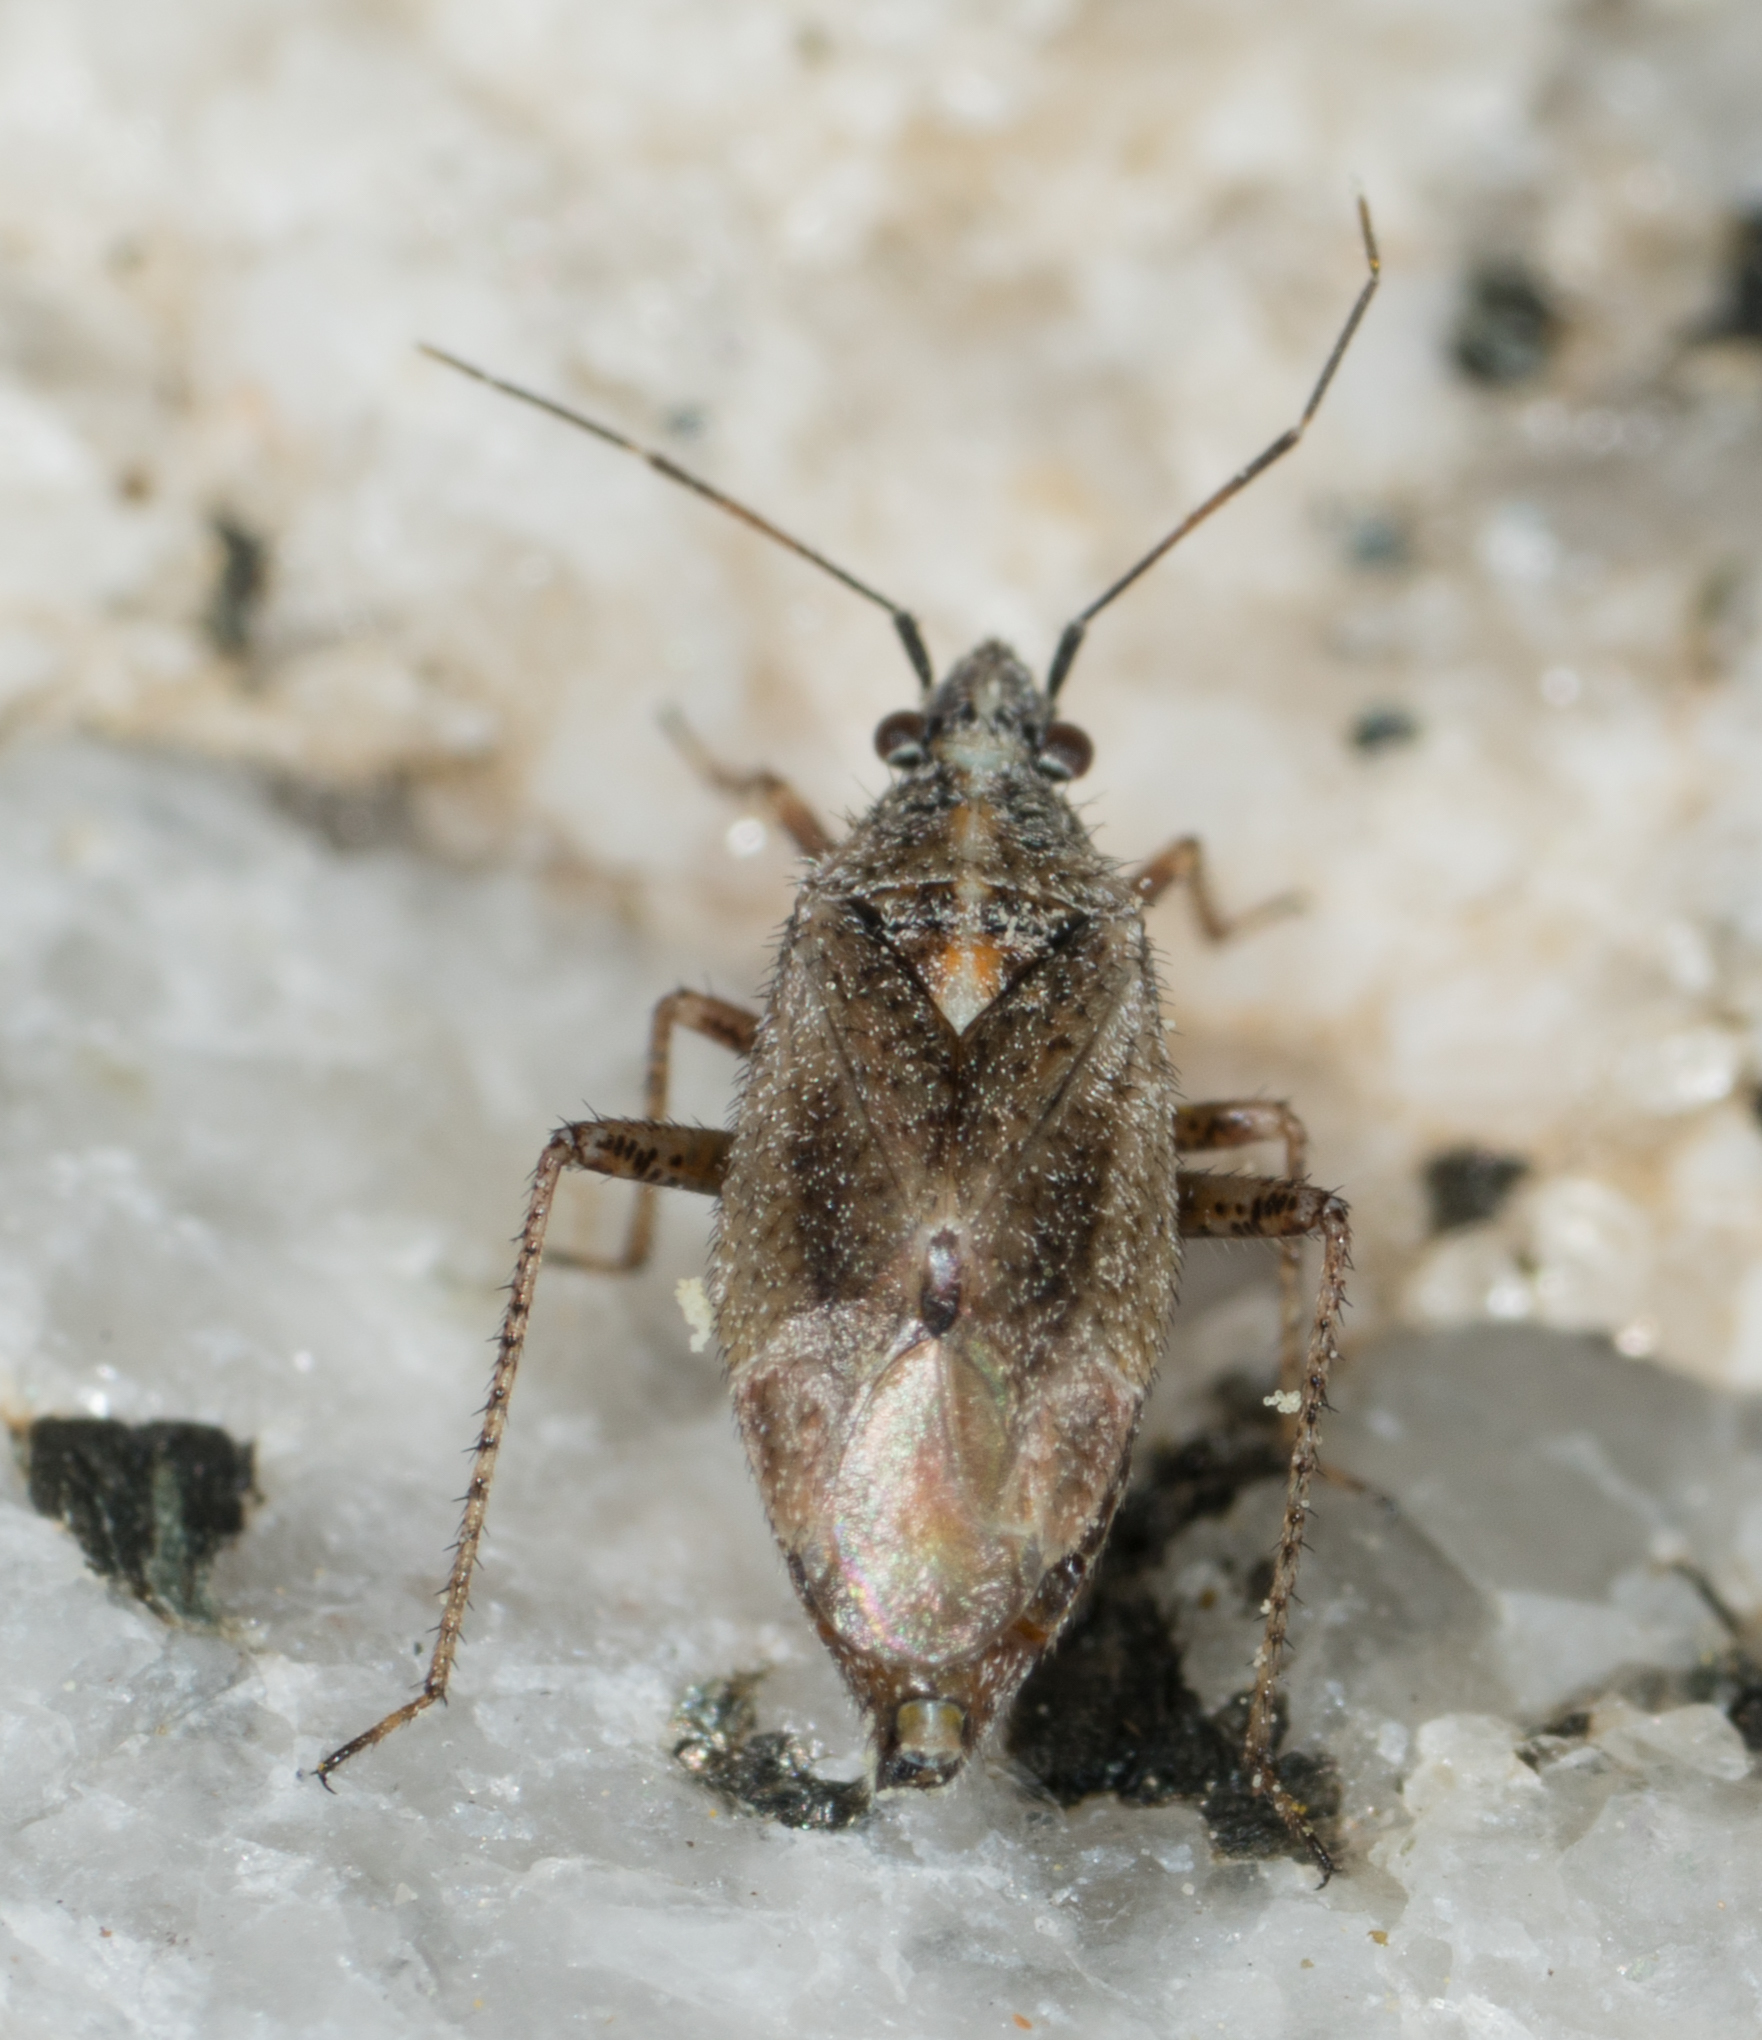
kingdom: Animalia
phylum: Arthropoda
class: Insecta
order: Hemiptera
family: Miridae
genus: Hoplomachidea
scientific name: Hoplomachidea consors
